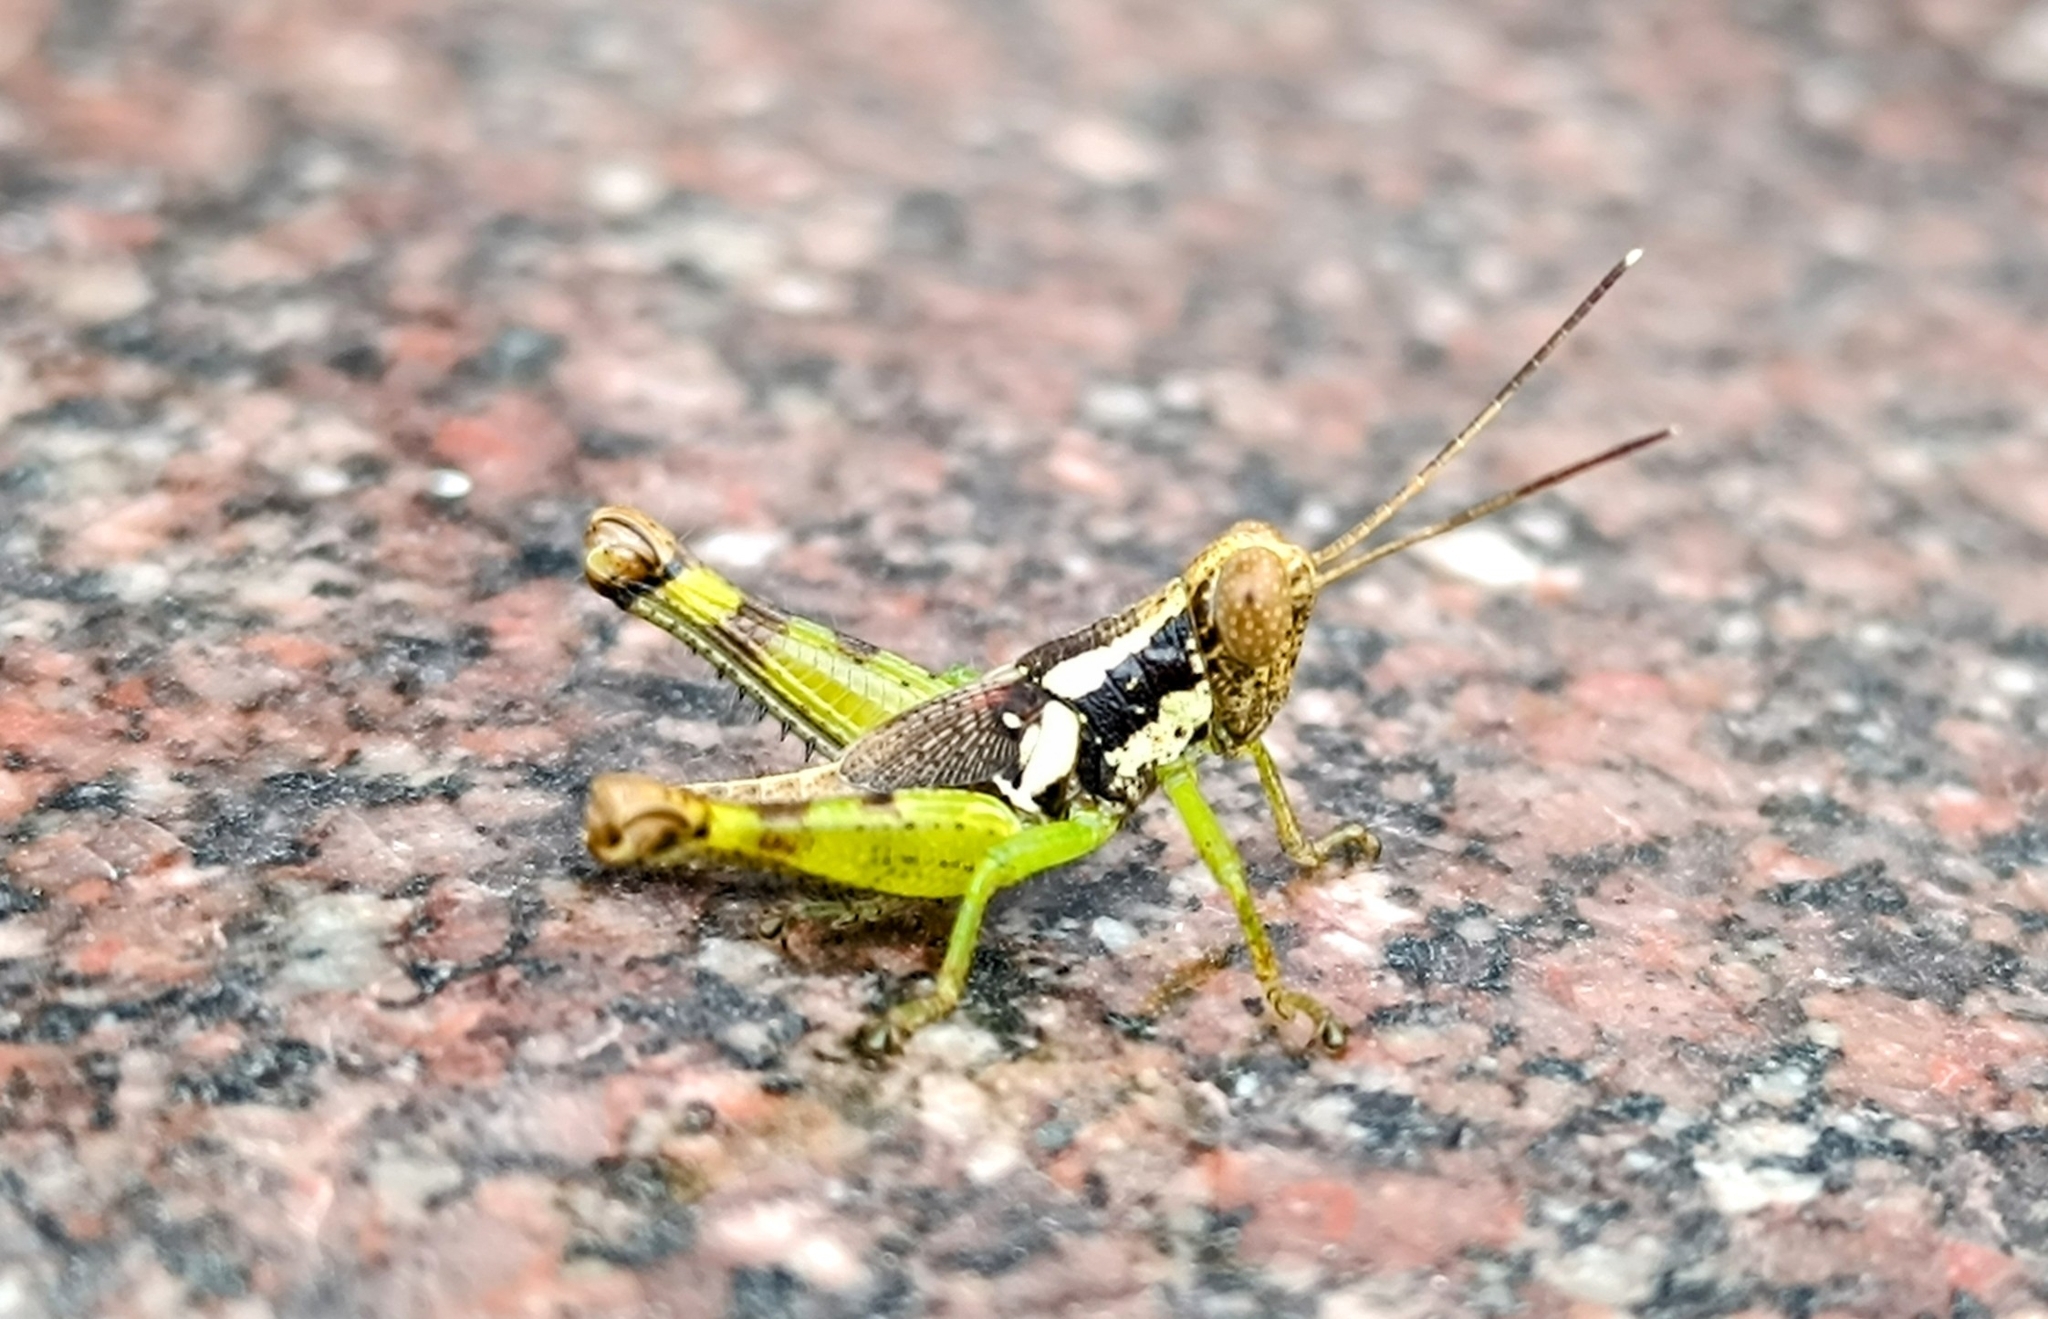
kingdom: Animalia
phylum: Arthropoda
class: Insecta
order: Orthoptera
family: Acrididae
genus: Pirithoicus
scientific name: Pirithoicus ophthalmicus
